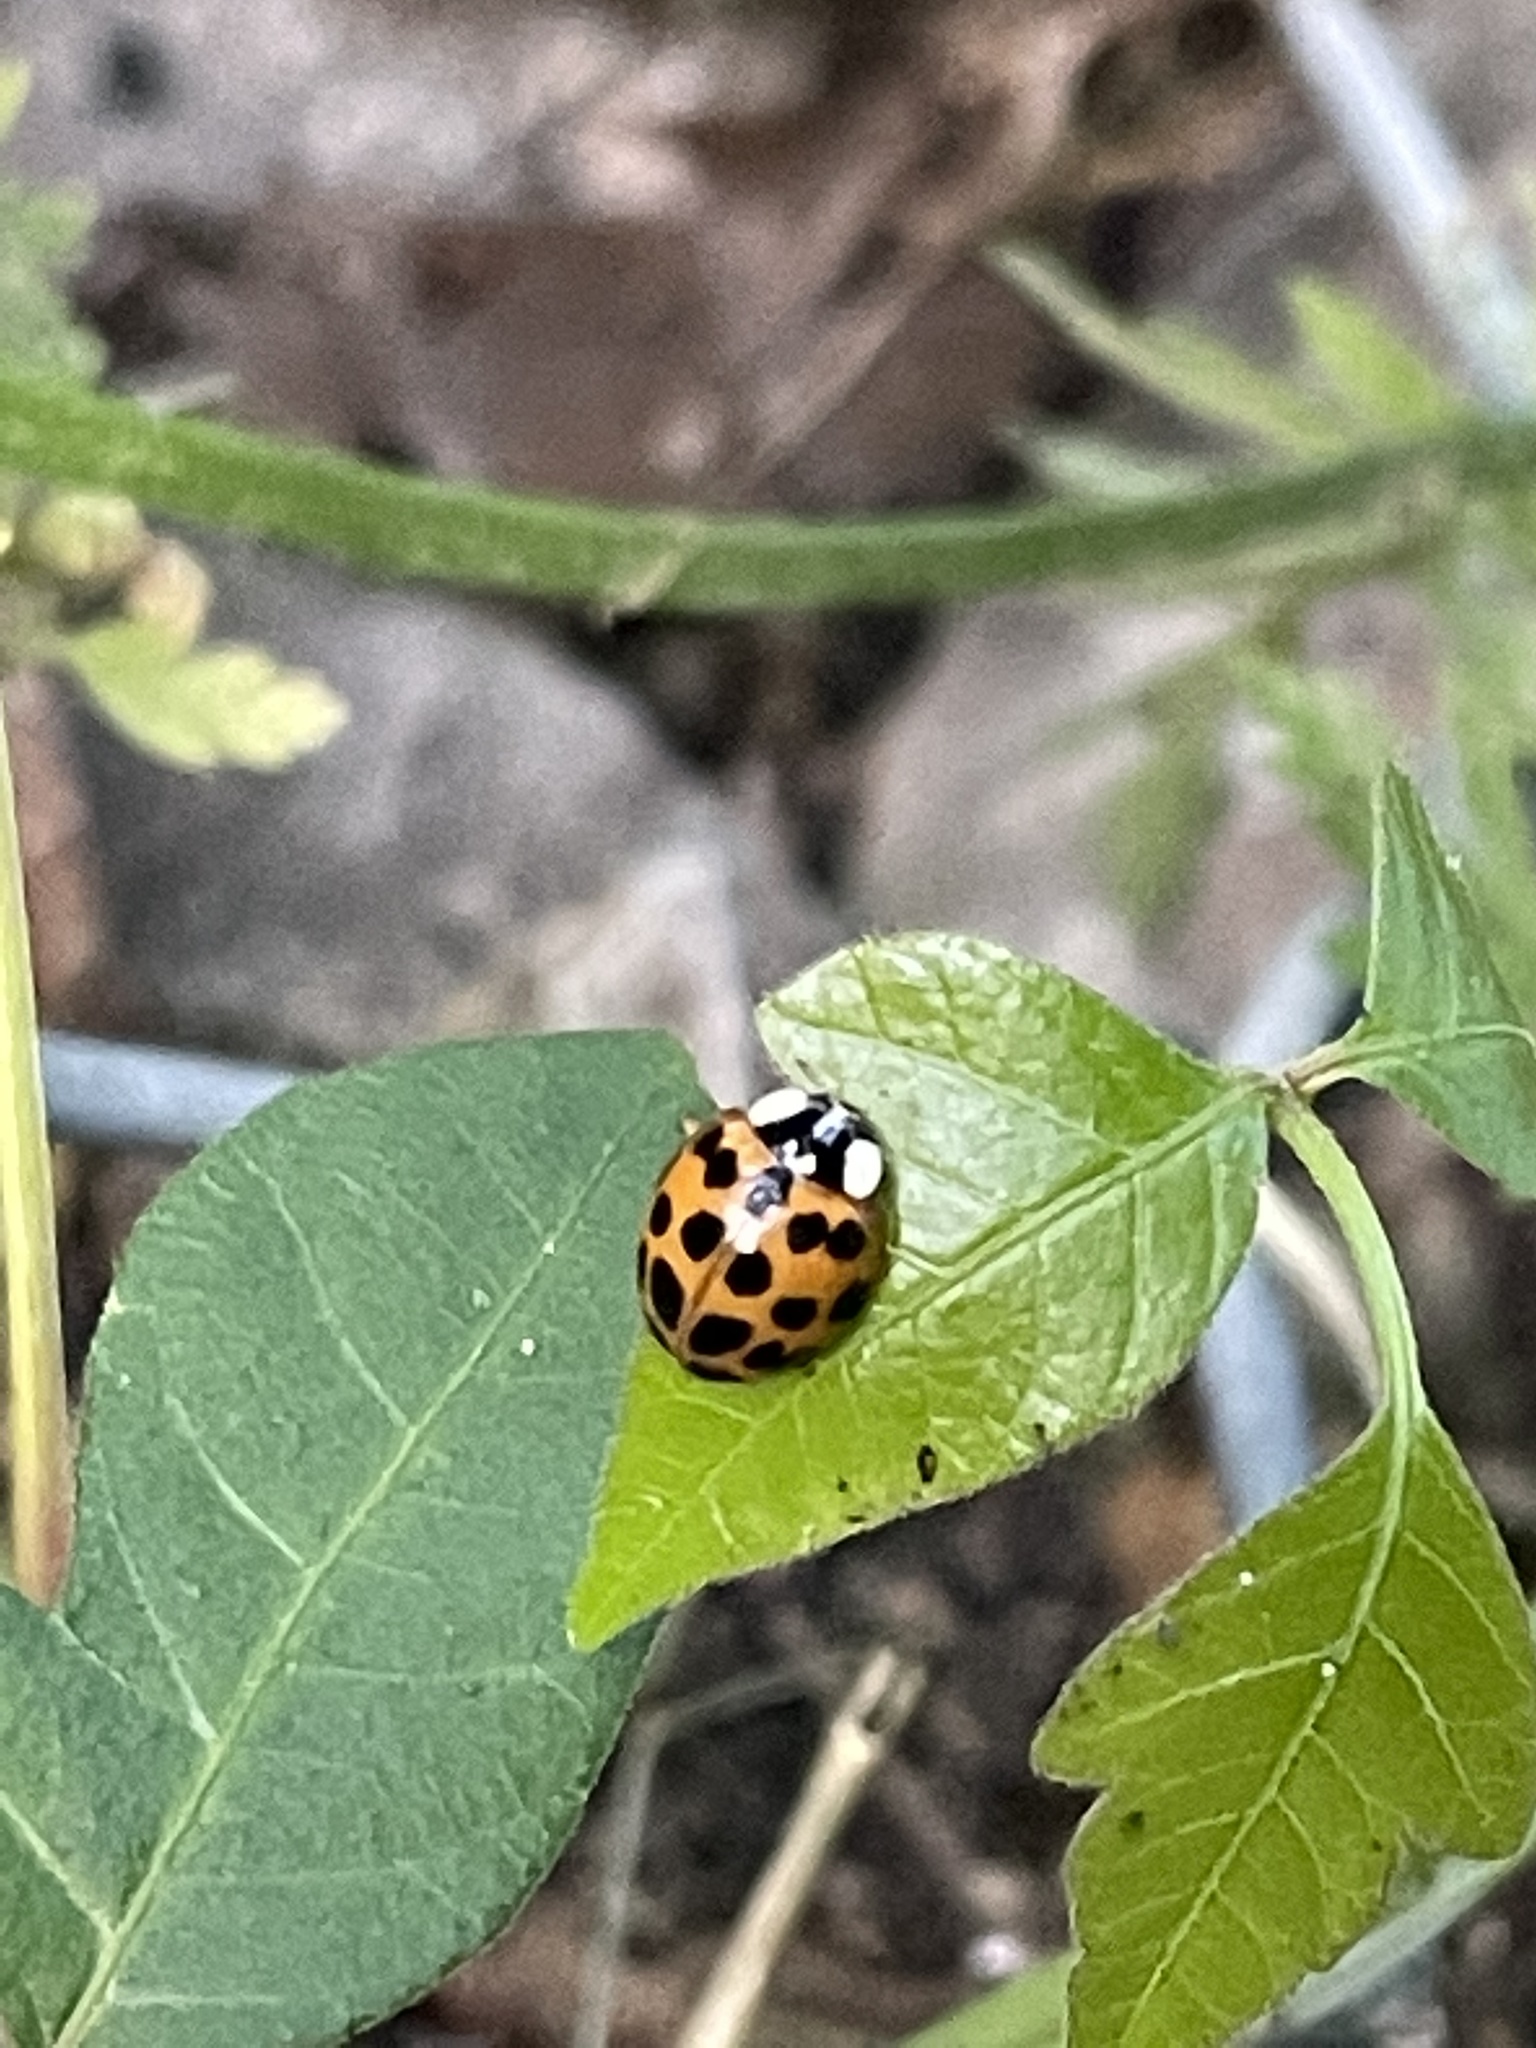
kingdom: Animalia
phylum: Arthropoda
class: Insecta
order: Coleoptera
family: Coccinellidae
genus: Harmonia
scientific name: Harmonia axyridis
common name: Harlequin ladybird
